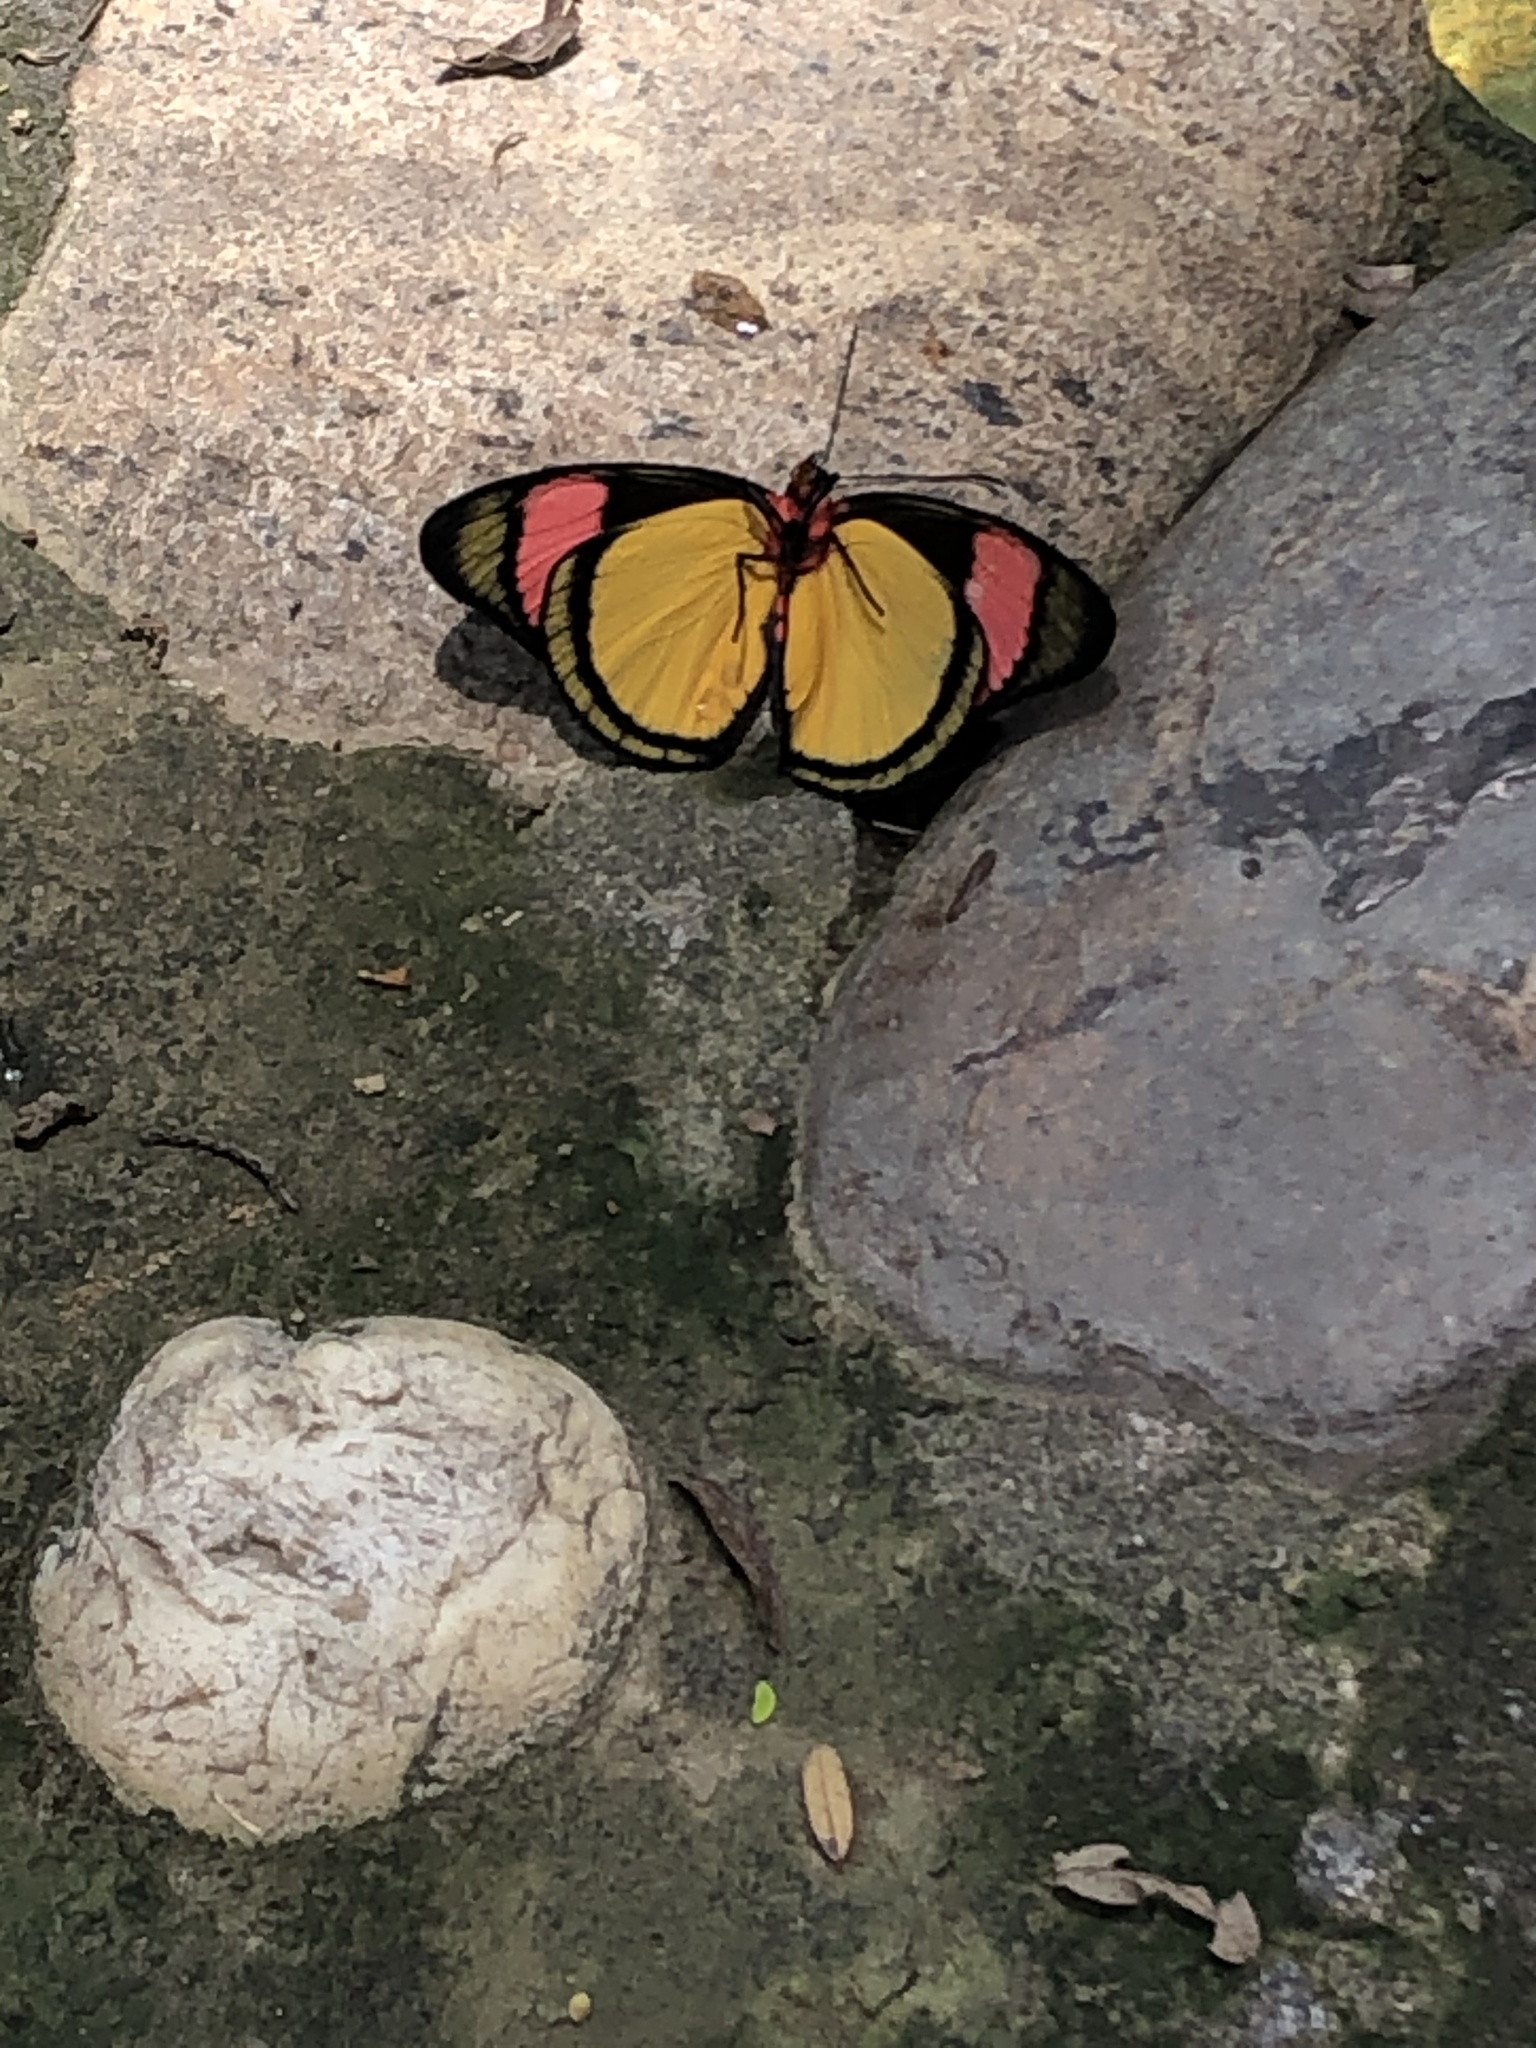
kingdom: Animalia
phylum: Arthropoda
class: Insecta
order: Lepidoptera
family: Nymphalidae
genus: Batesia
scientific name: Batesia hypochlora
